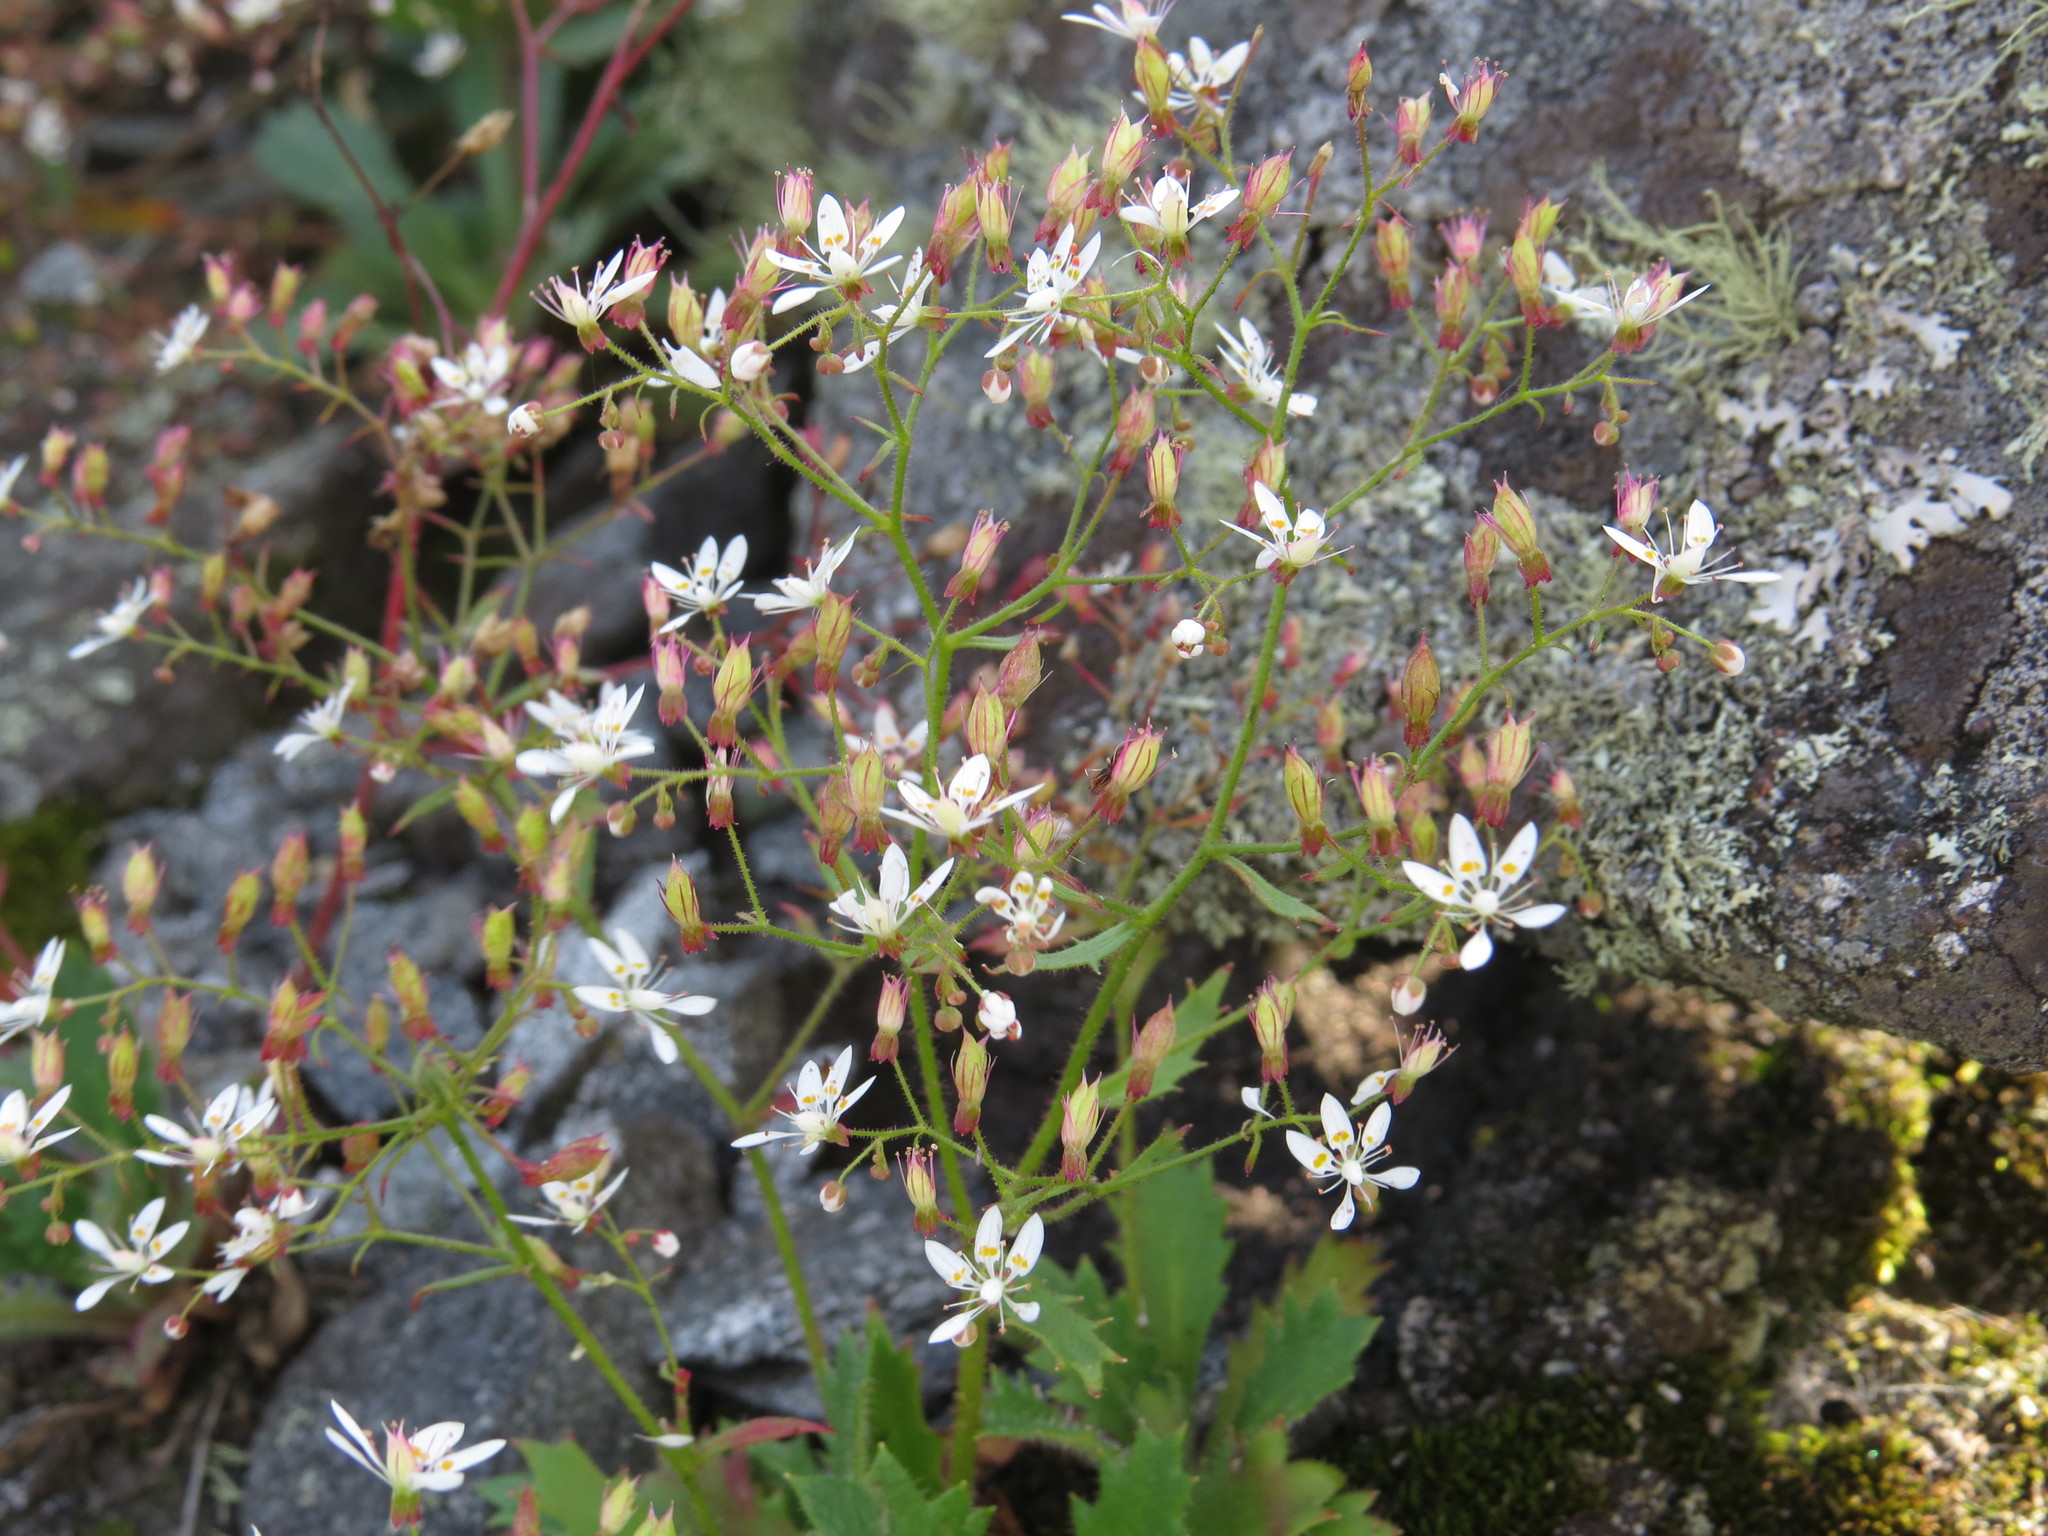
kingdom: Plantae
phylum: Tracheophyta
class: Magnoliopsida
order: Saxifragales
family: Saxifragaceae
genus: Micranthes
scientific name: Micranthes petiolaris
